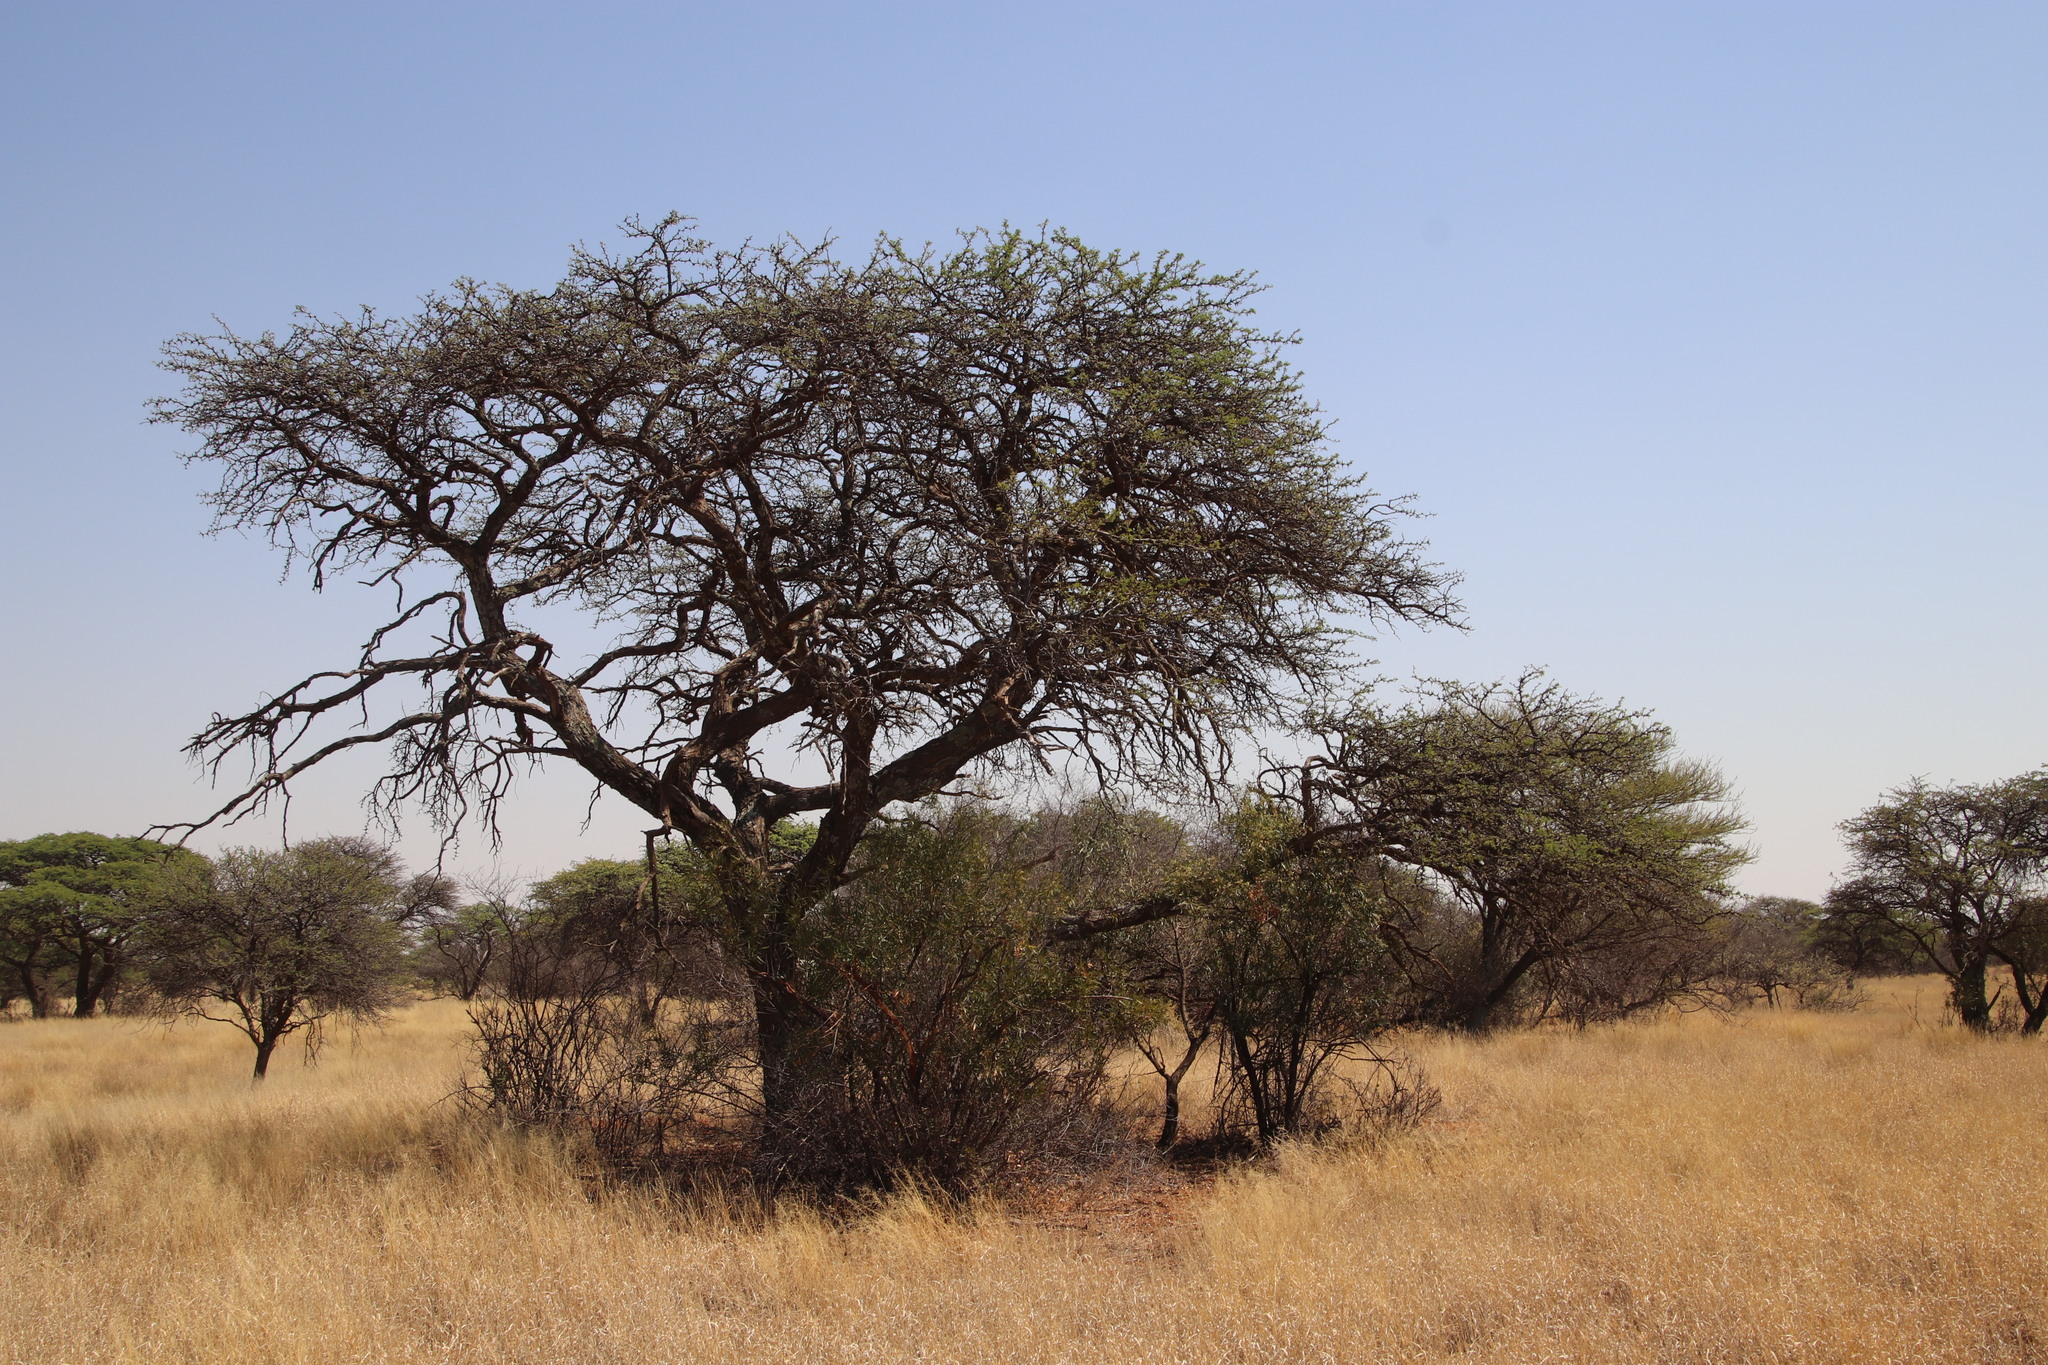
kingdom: Plantae
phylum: Tracheophyta
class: Magnoliopsida
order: Fabales
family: Fabaceae
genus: Vachellia
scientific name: Vachellia erioloba
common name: Camel thorn
